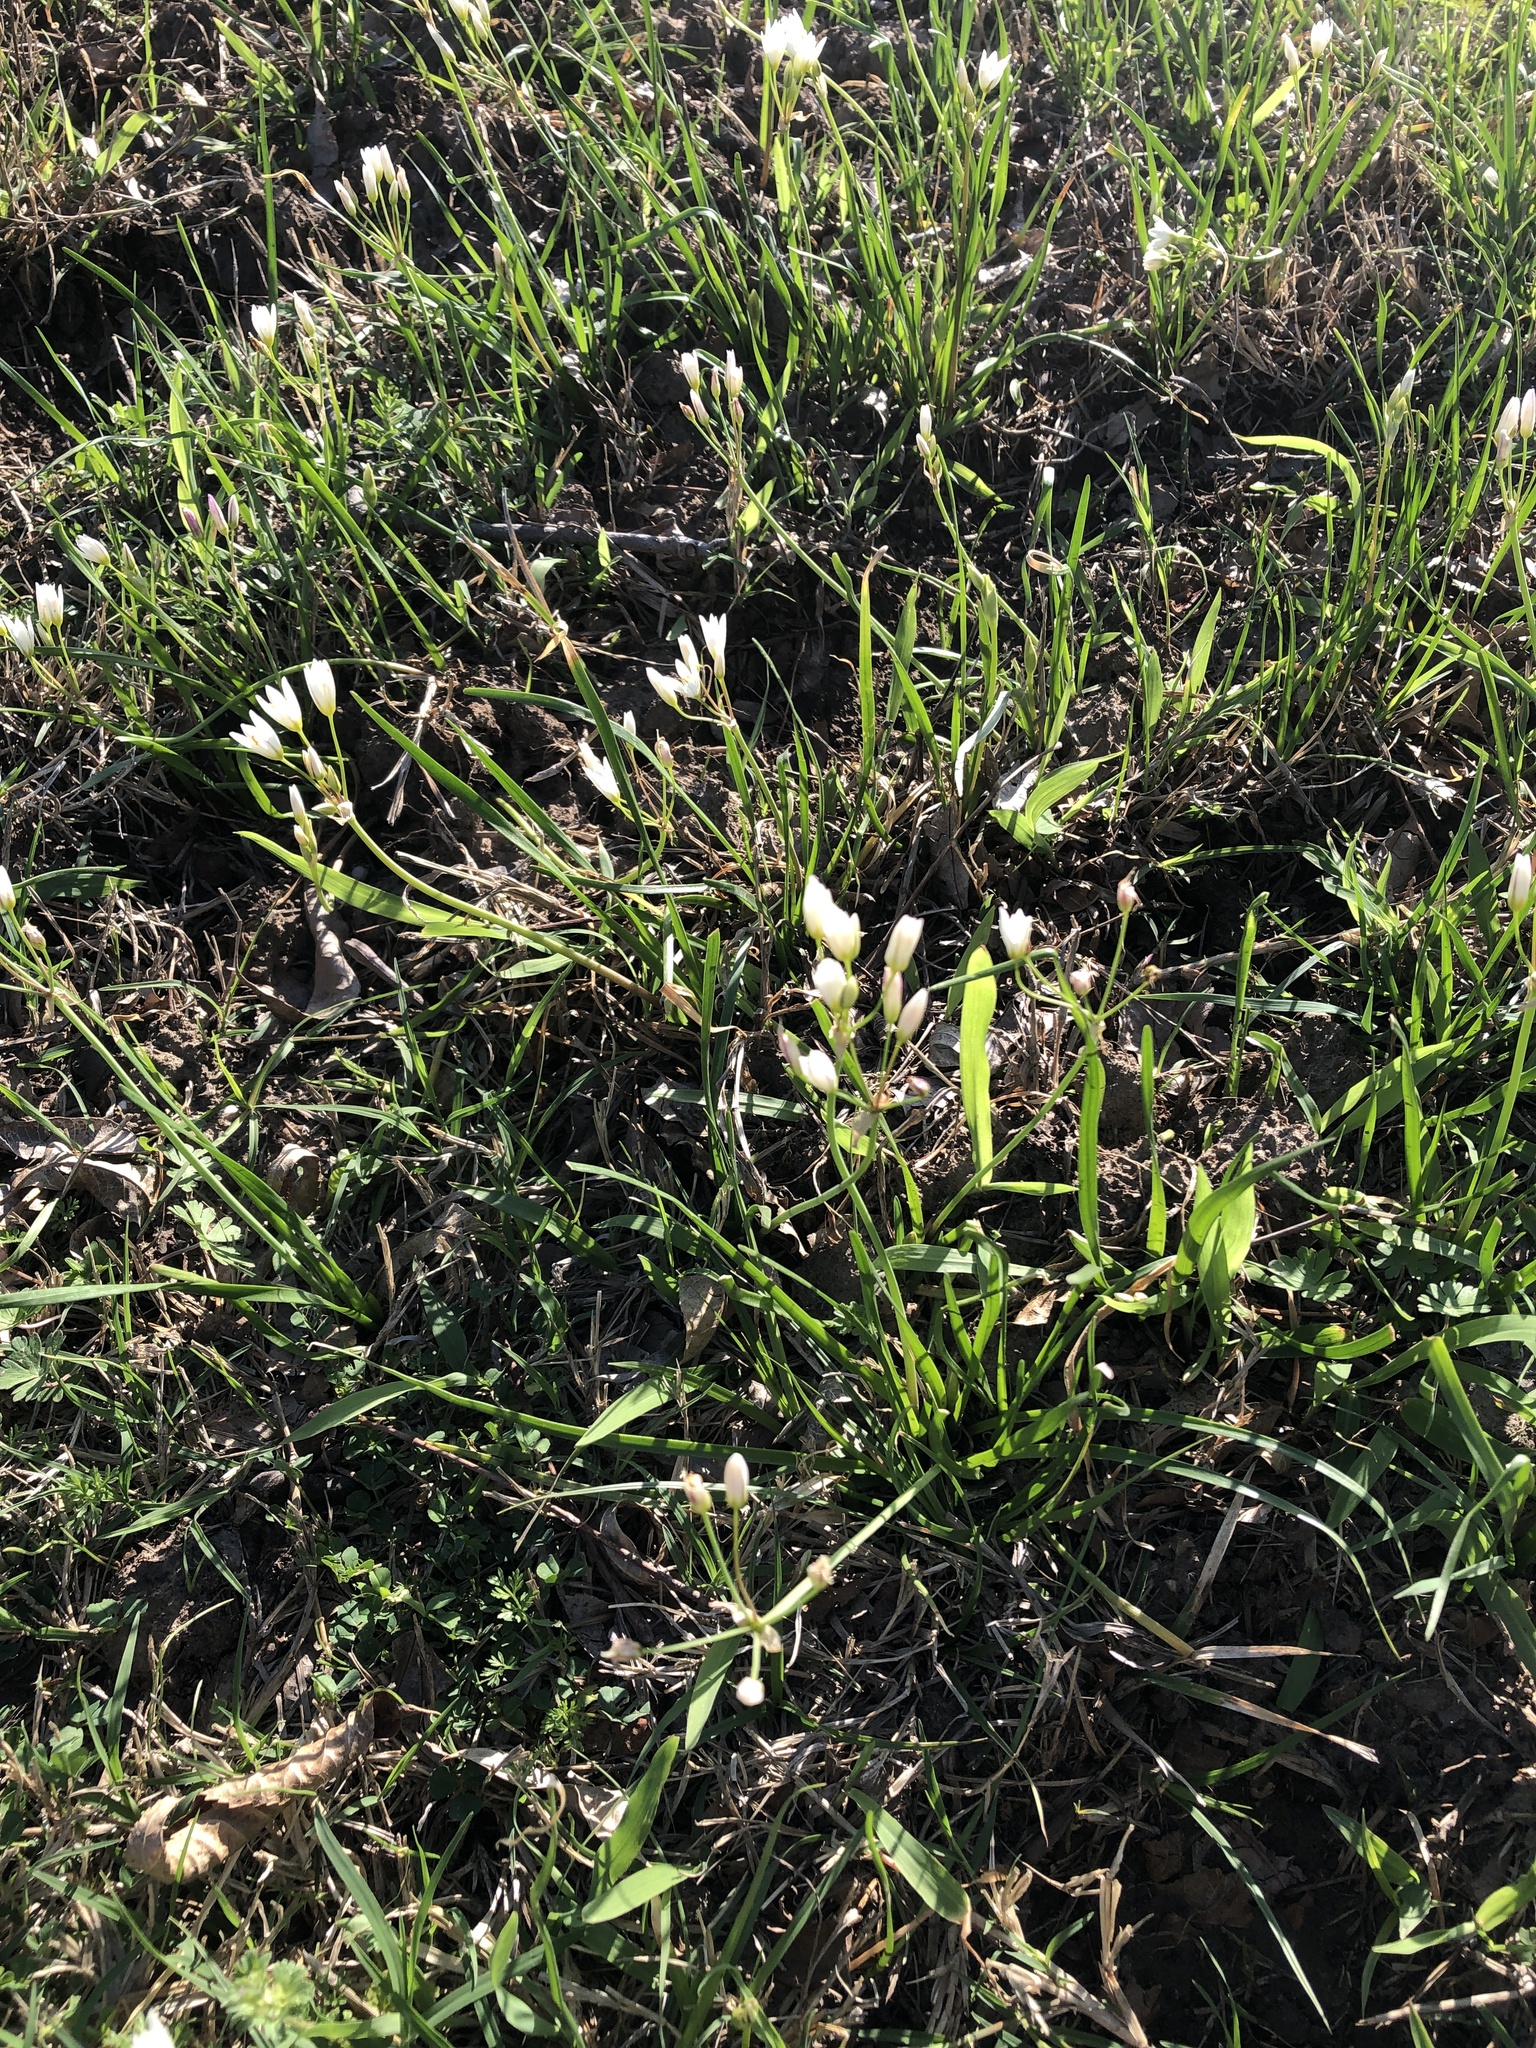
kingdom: Plantae
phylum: Tracheophyta
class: Liliopsida
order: Asparagales
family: Amaryllidaceae
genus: Nothoscordum
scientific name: Nothoscordum bivalve
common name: Crow-poison
